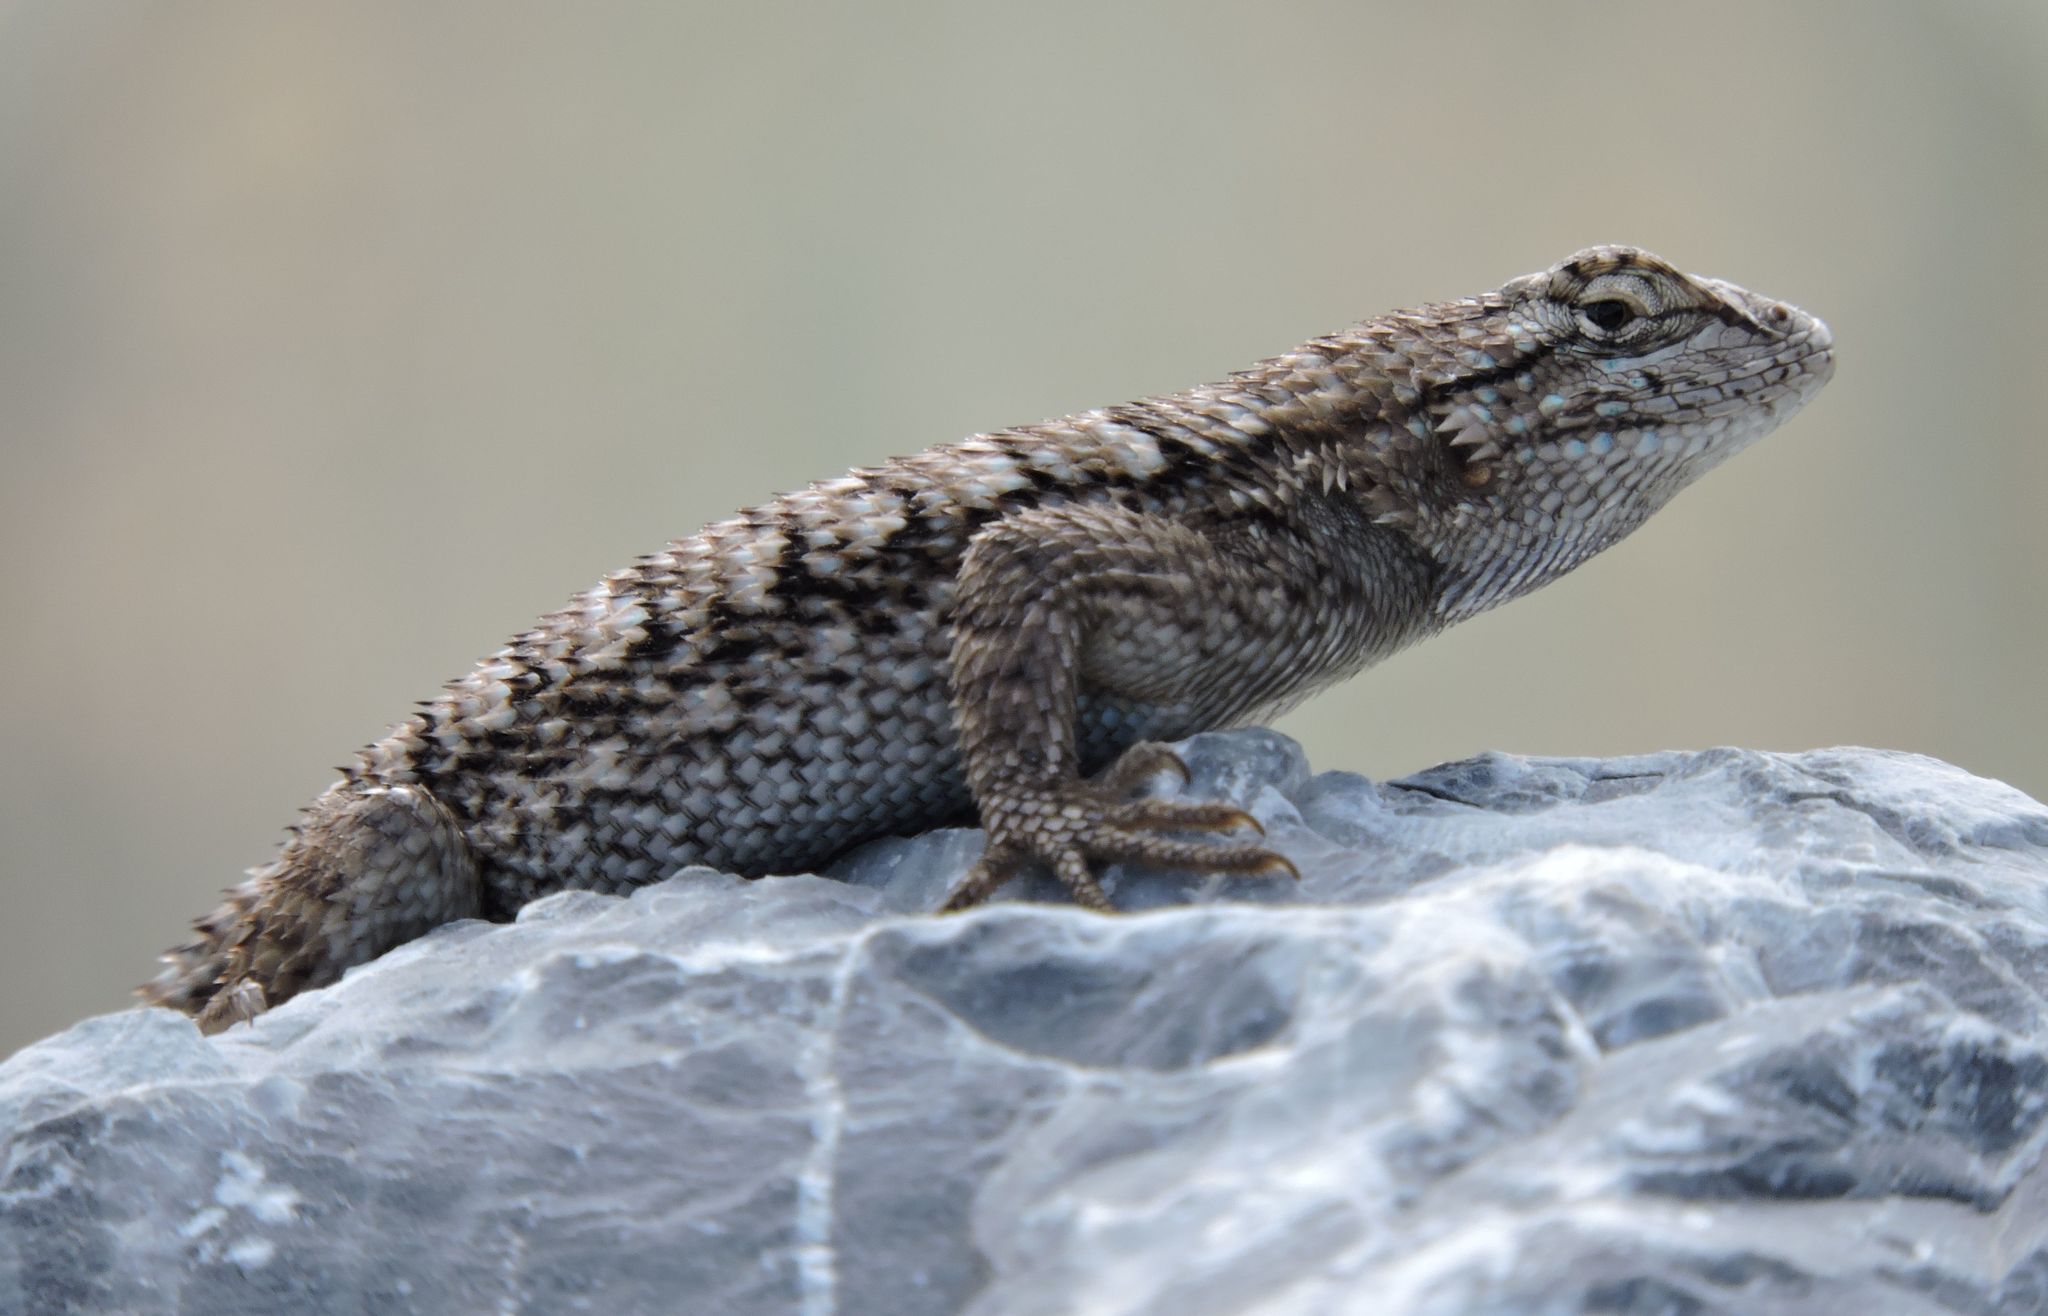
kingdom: Animalia
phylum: Chordata
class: Squamata
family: Phrynosomatidae
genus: Sceloporus
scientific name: Sceloporus occidentalis
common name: Western fence lizard
